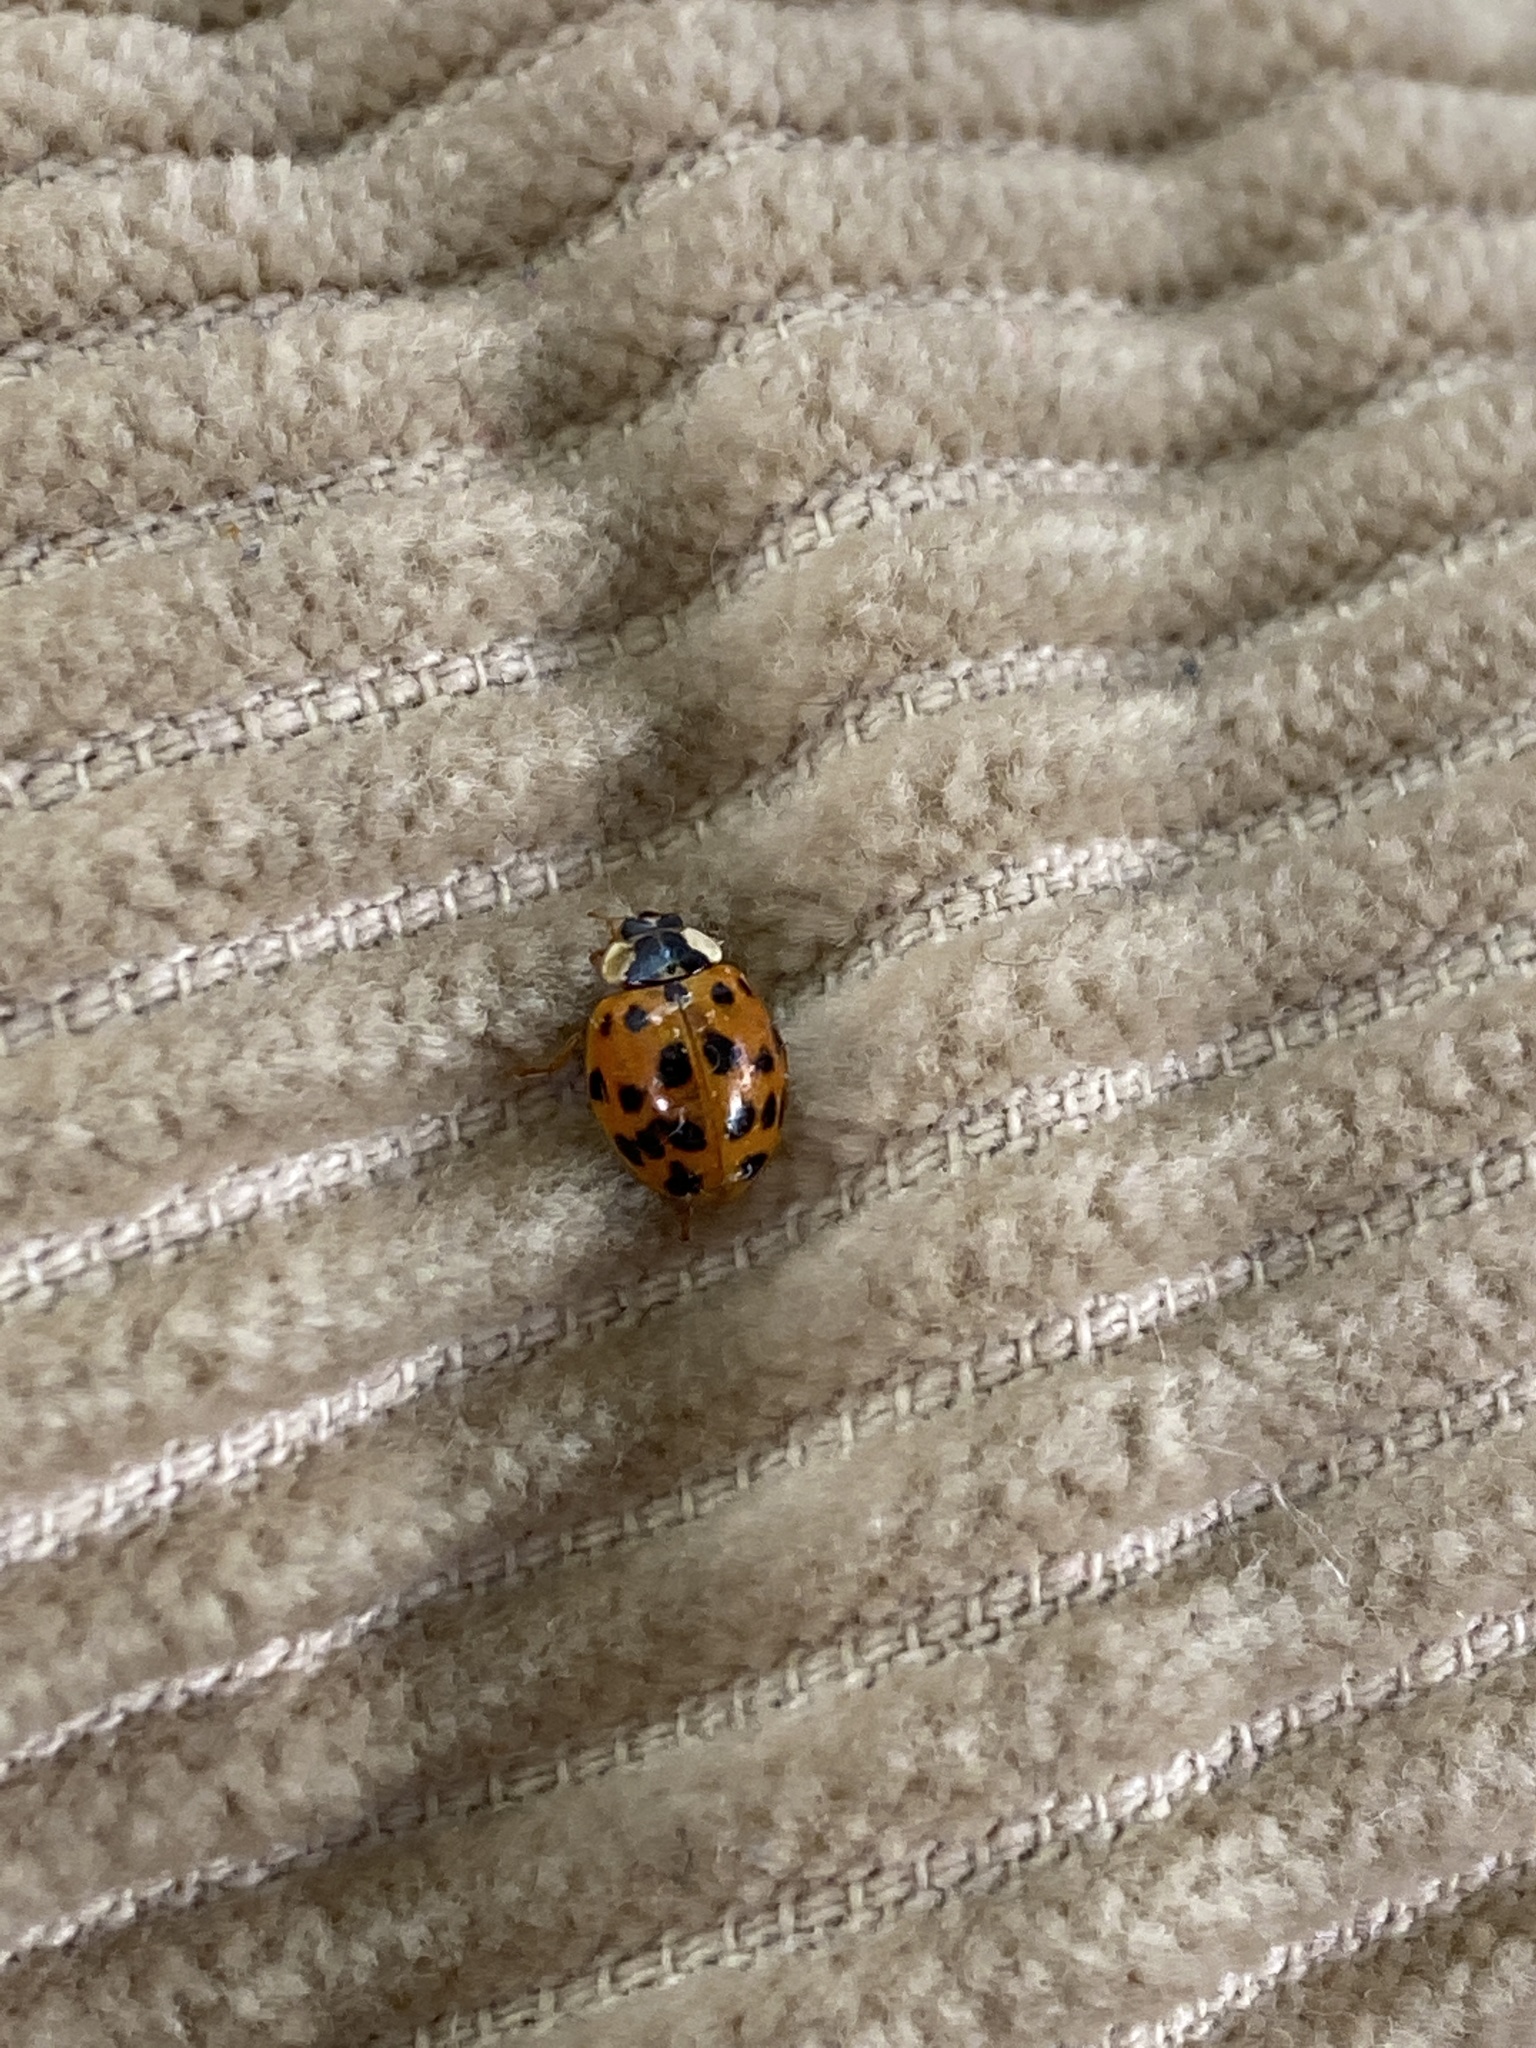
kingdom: Animalia
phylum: Arthropoda
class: Insecta
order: Coleoptera
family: Coccinellidae
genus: Harmonia
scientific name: Harmonia axyridis
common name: Harlequin ladybird
